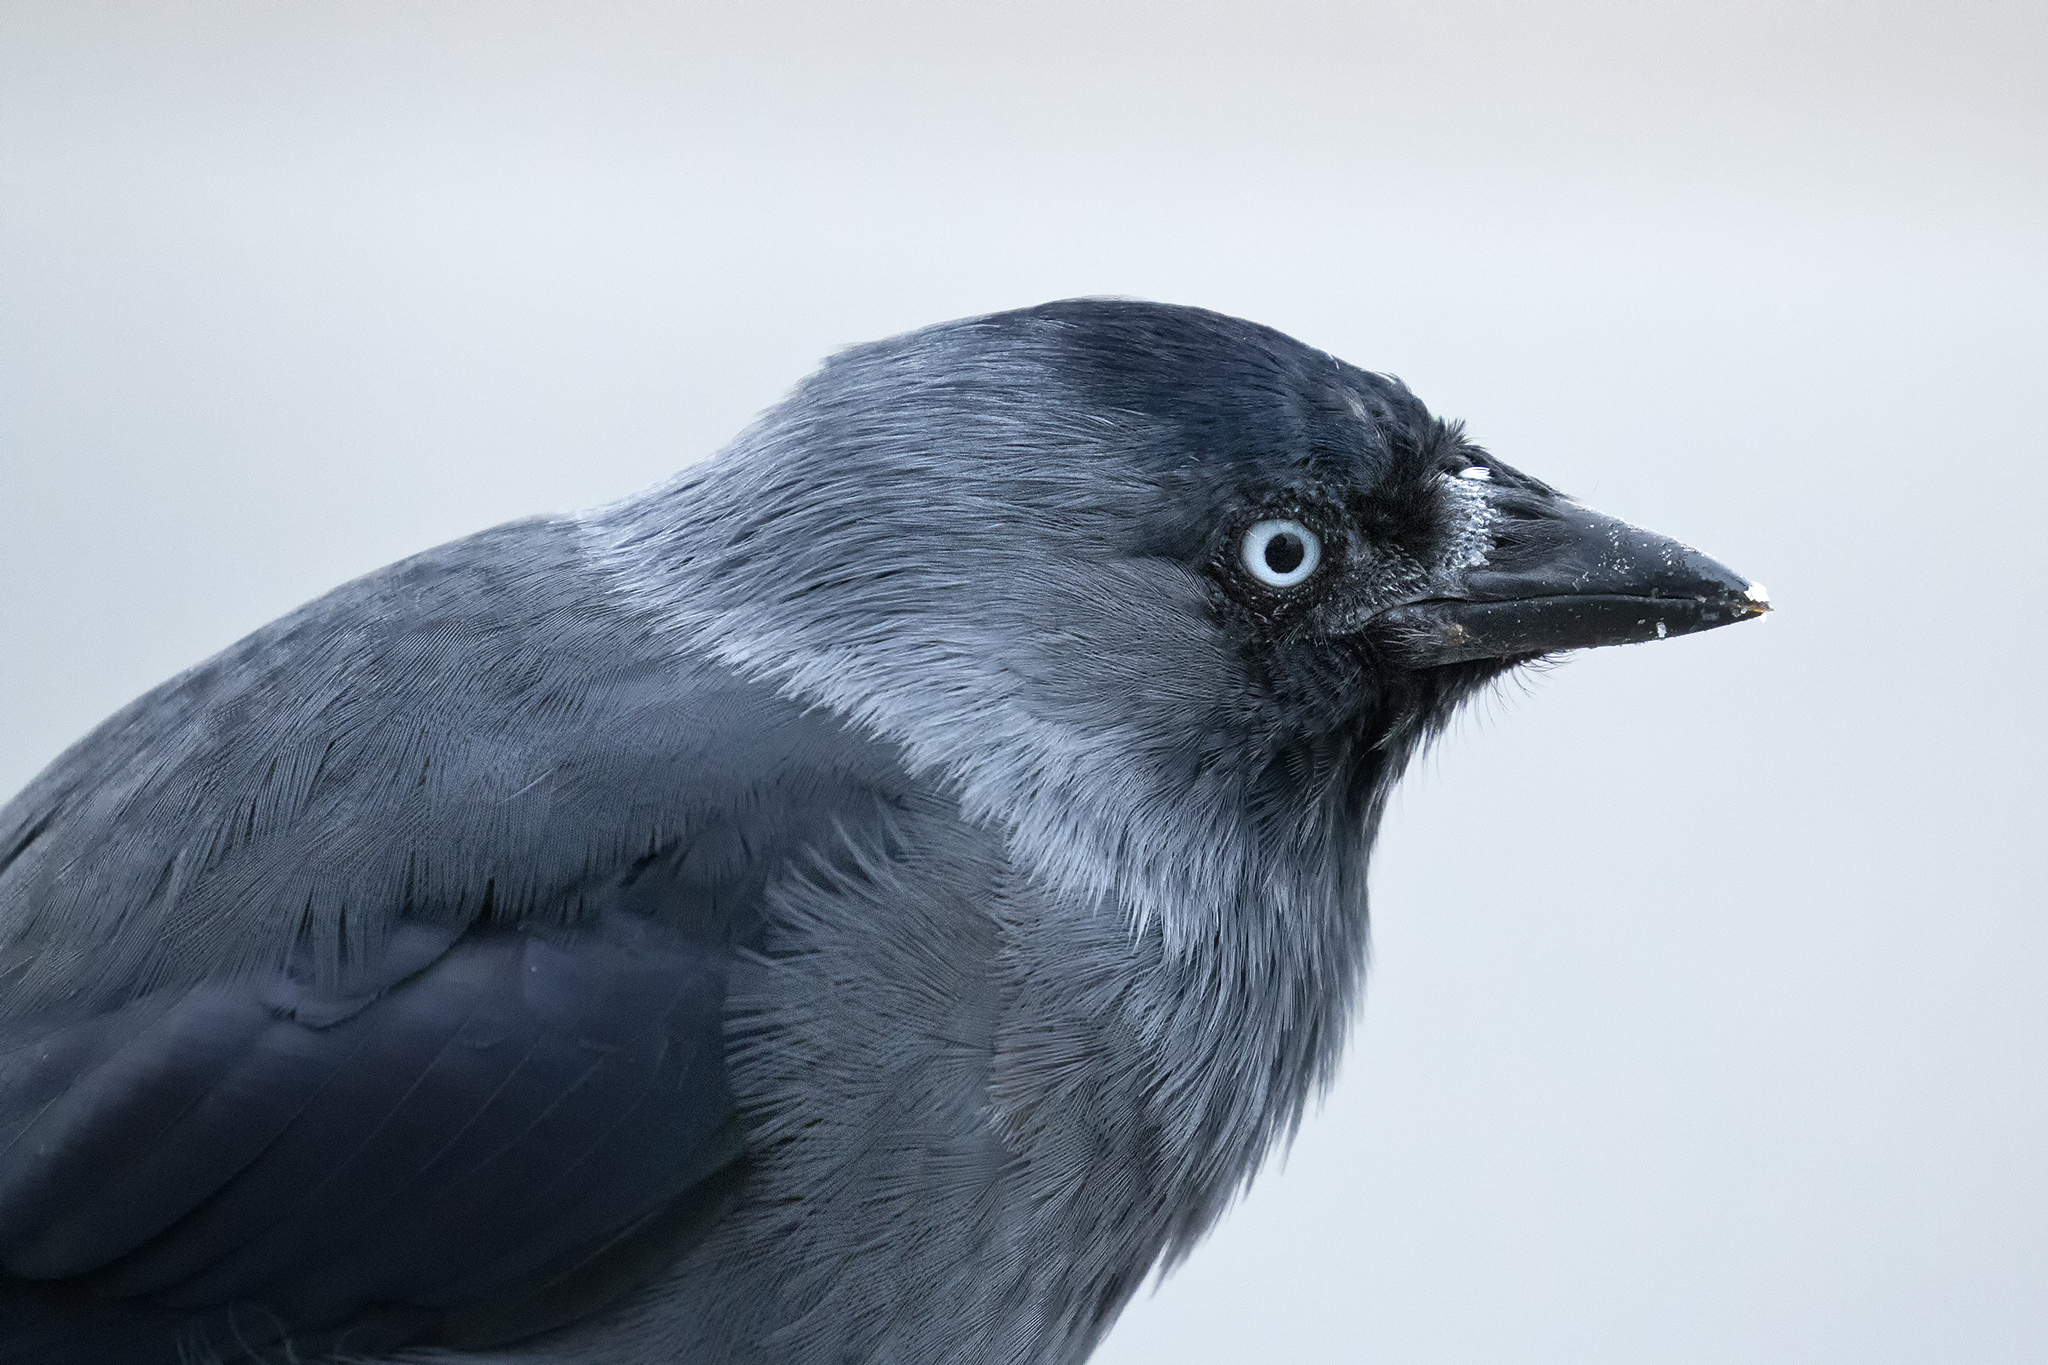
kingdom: Animalia
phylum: Chordata
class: Aves
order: Passeriformes
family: Corvidae
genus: Coloeus
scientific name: Coloeus monedula
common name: Western jackdaw
